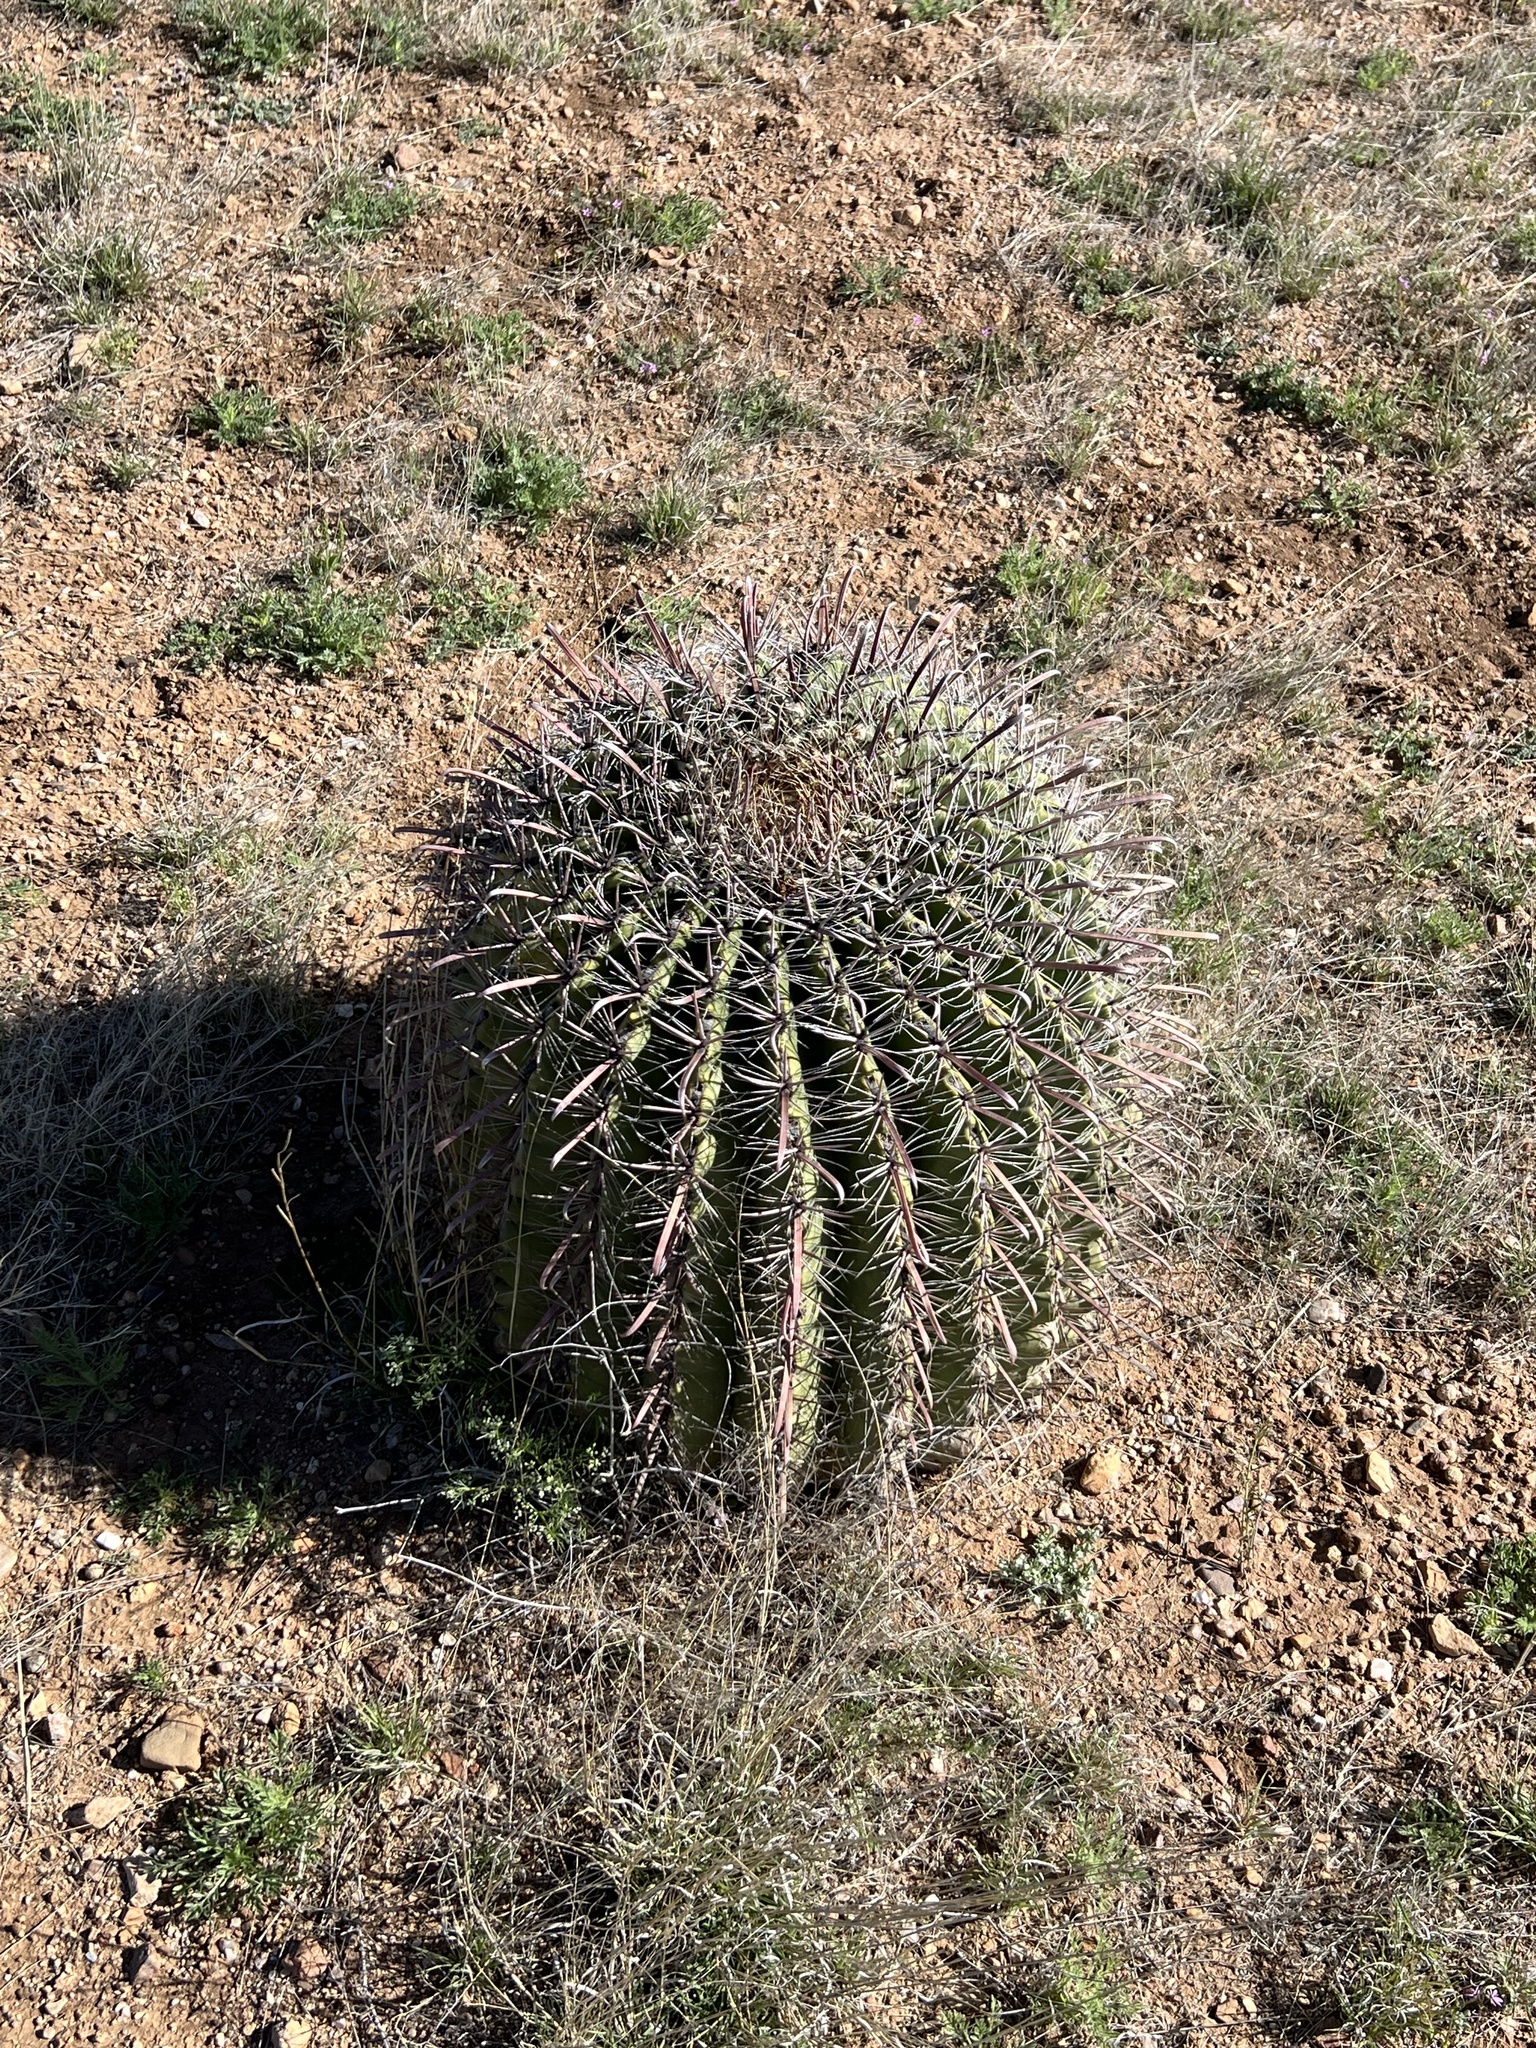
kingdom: Plantae
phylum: Tracheophyta
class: Magnoliopsida
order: Caryophyllales
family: Cactaceae
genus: Ferocactus
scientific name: Ferocactus wislizeni
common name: Candy barrel cactus
